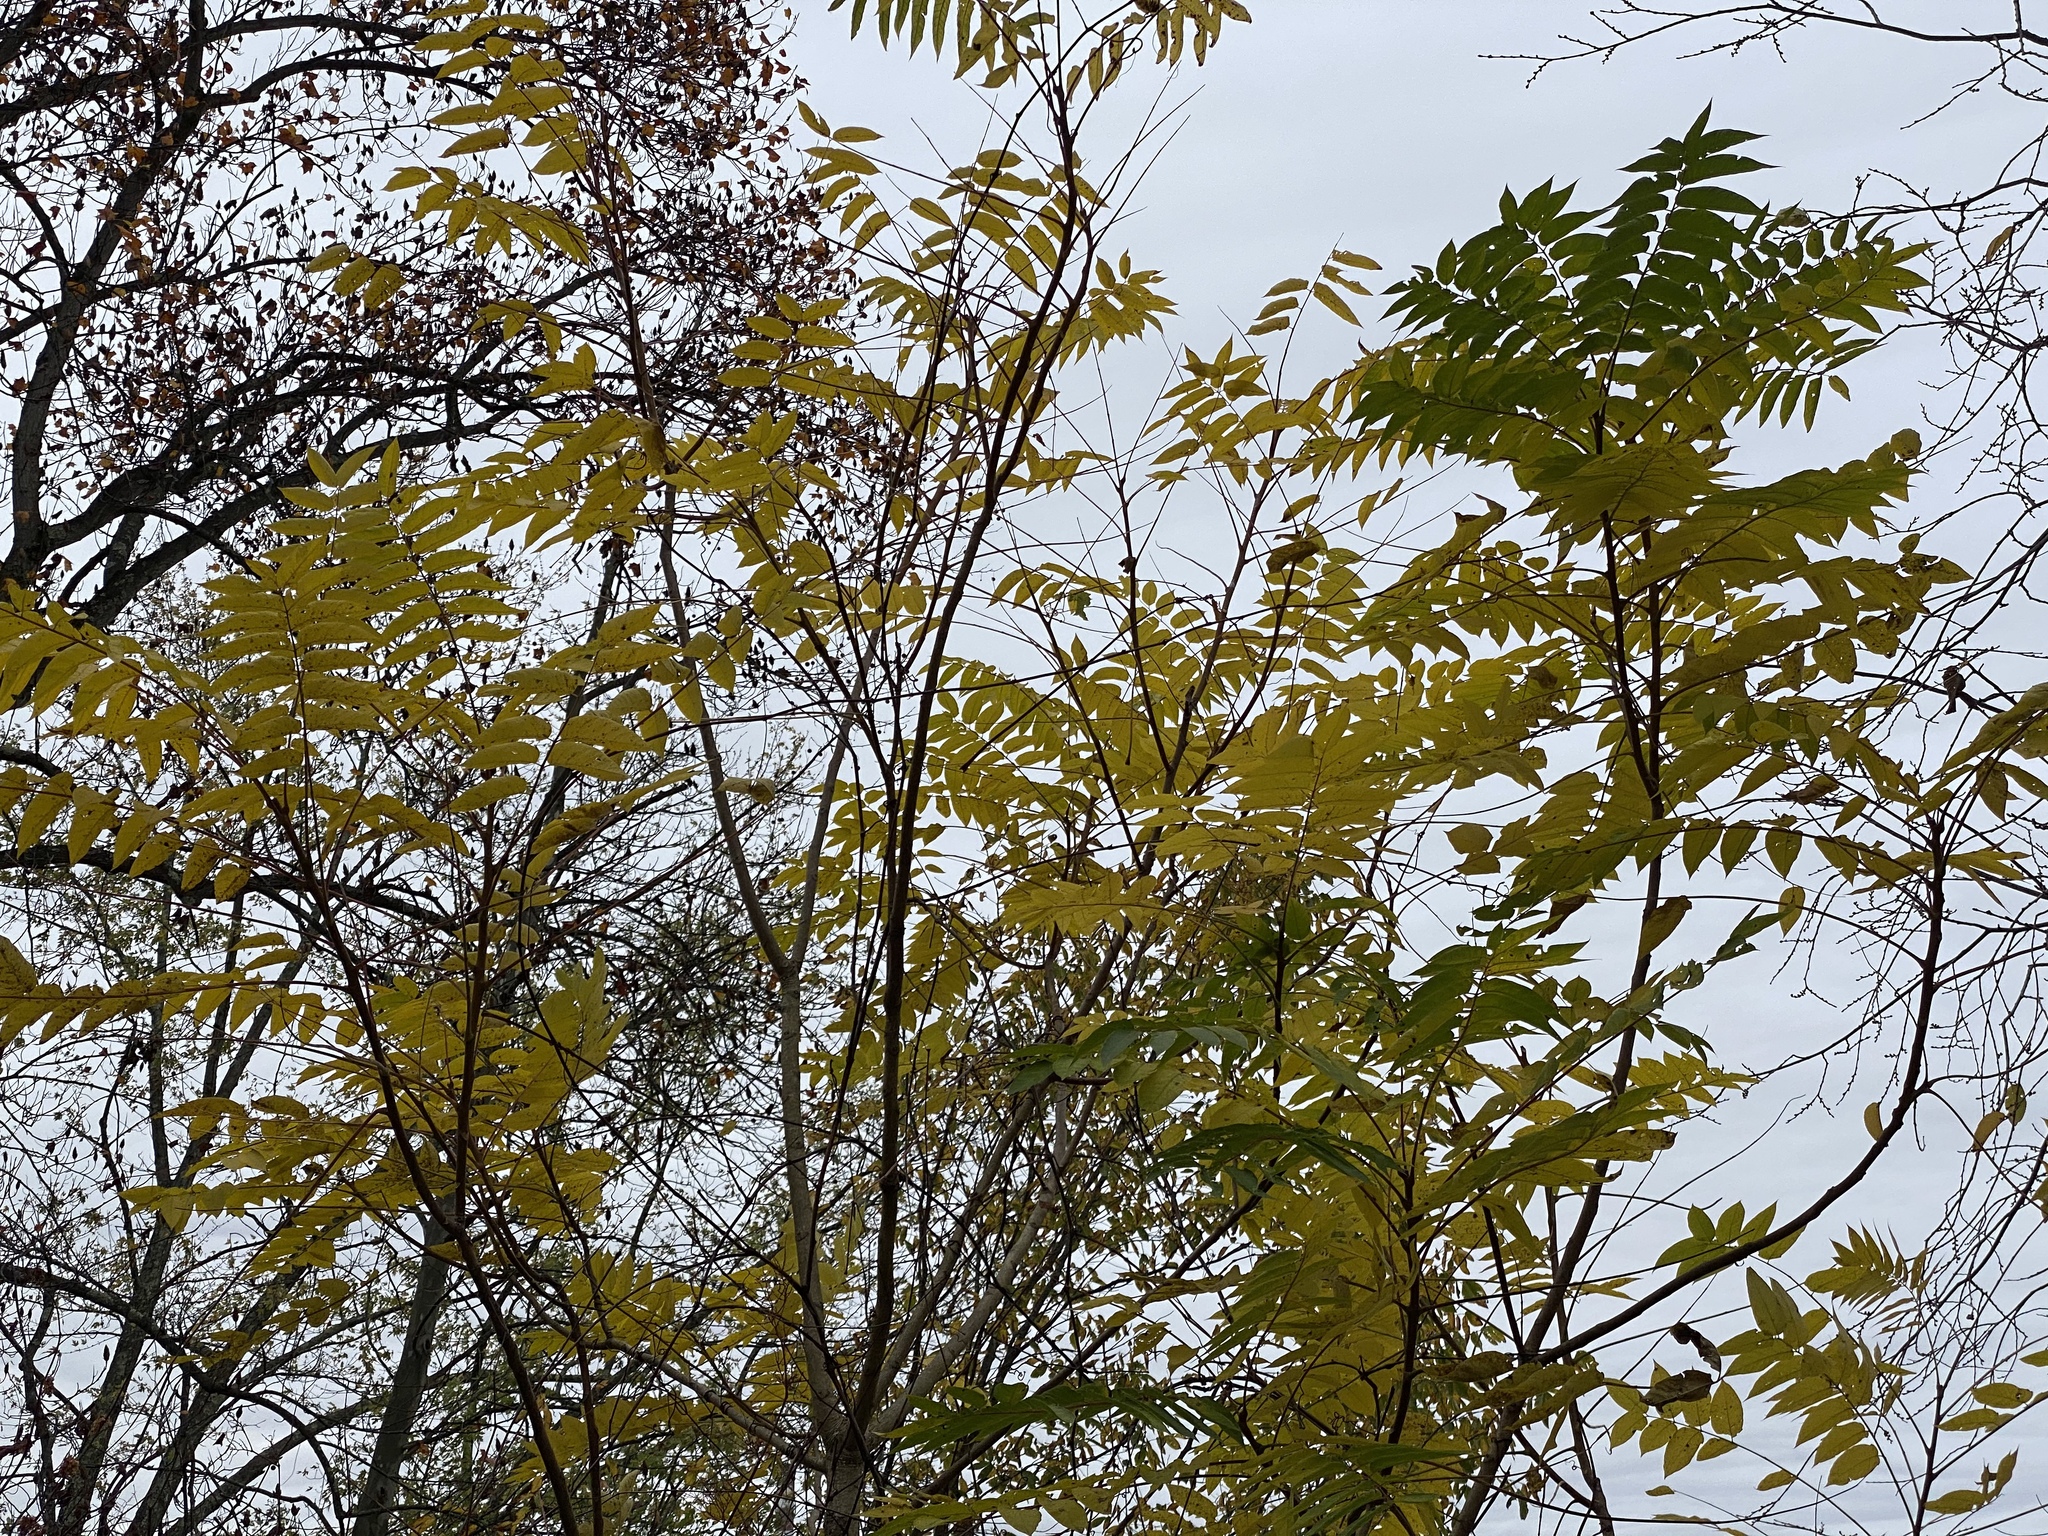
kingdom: Plantae
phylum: Tracheophyta
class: Magnoliopsida
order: Sapindales
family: Simaroubaceae
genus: Ailanthus
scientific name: Ailanthus altissima
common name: Tree-of-heaven
